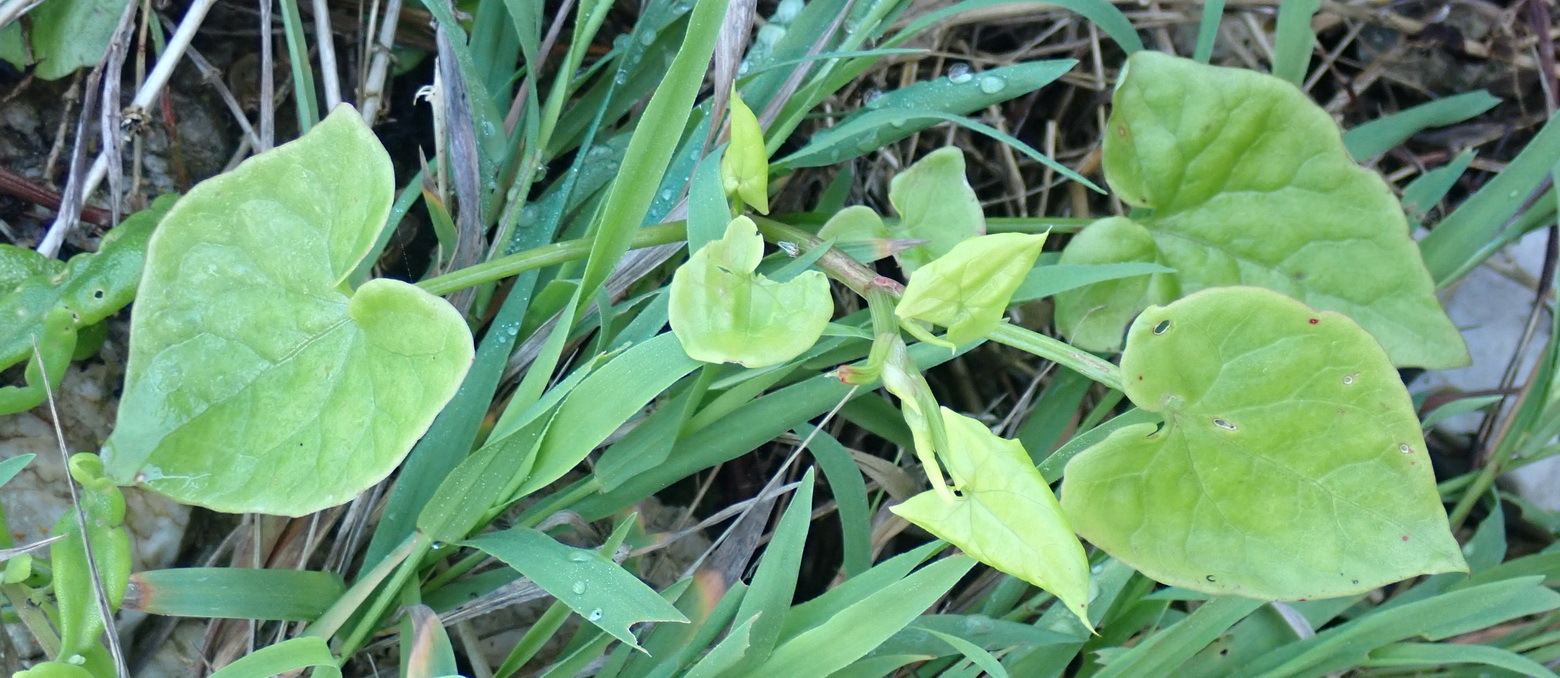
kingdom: Plantae
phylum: Tracheophyta
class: Magnoliopsida
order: Caryophyllales
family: Polygonaceae
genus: Rumex
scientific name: Rumex cordatus
